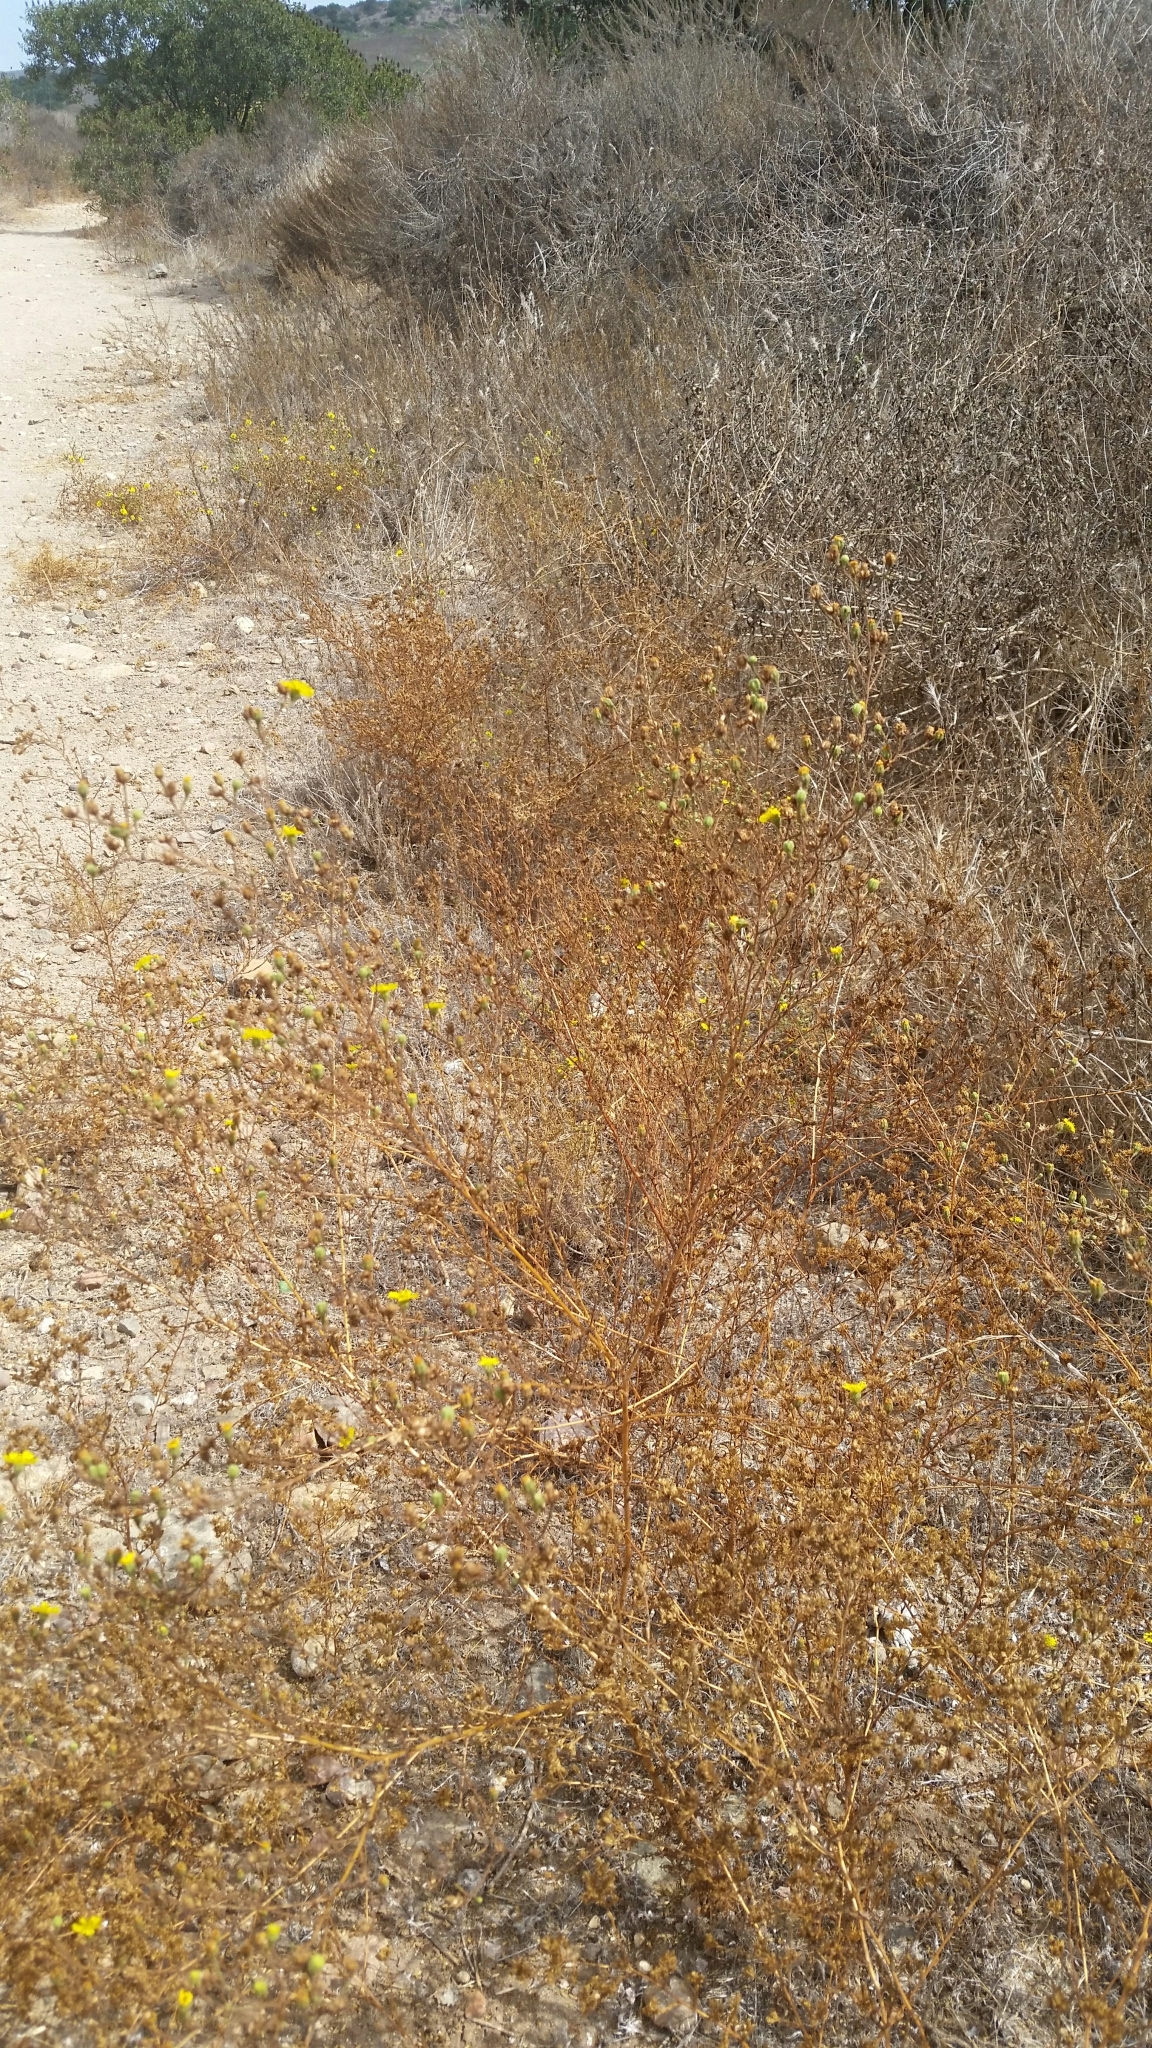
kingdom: Plantae
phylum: Tracheophyta
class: Magnoliopsida
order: Asterales
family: Asteraceae
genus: Deinandra
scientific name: Deinandra paniculata
